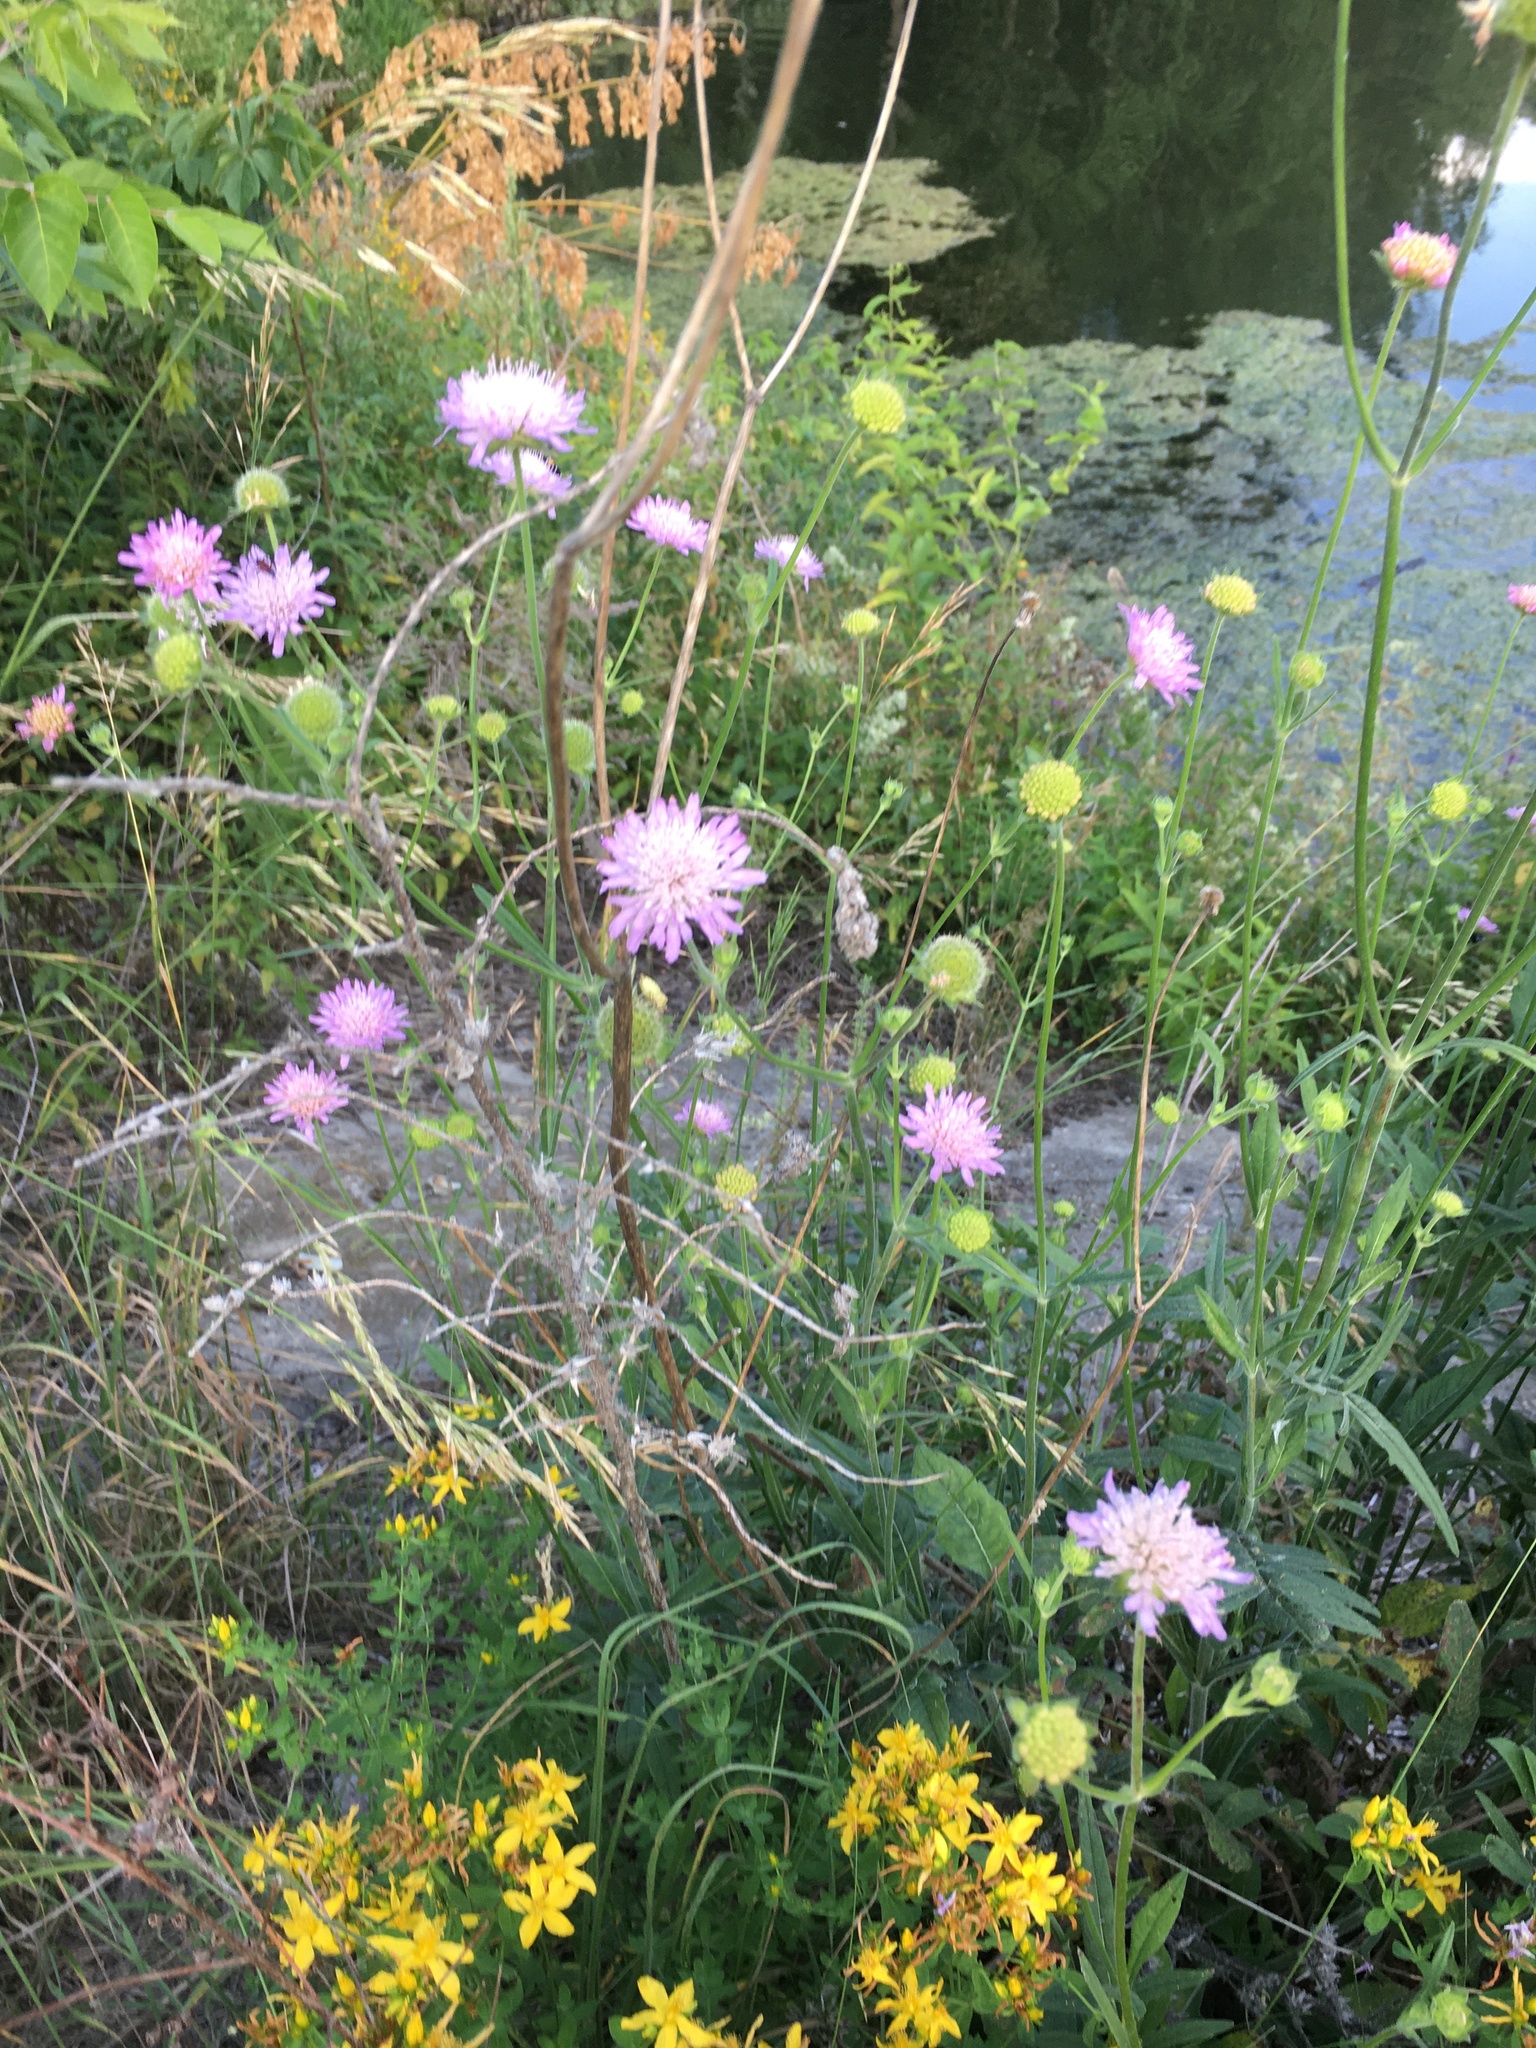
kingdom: Plantae
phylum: Tracheophyta
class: Magnoliopsida
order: Dipsacales
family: Caprifoliaceae
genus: Knautia
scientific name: Knautia arvensis
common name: Field scabiosa
